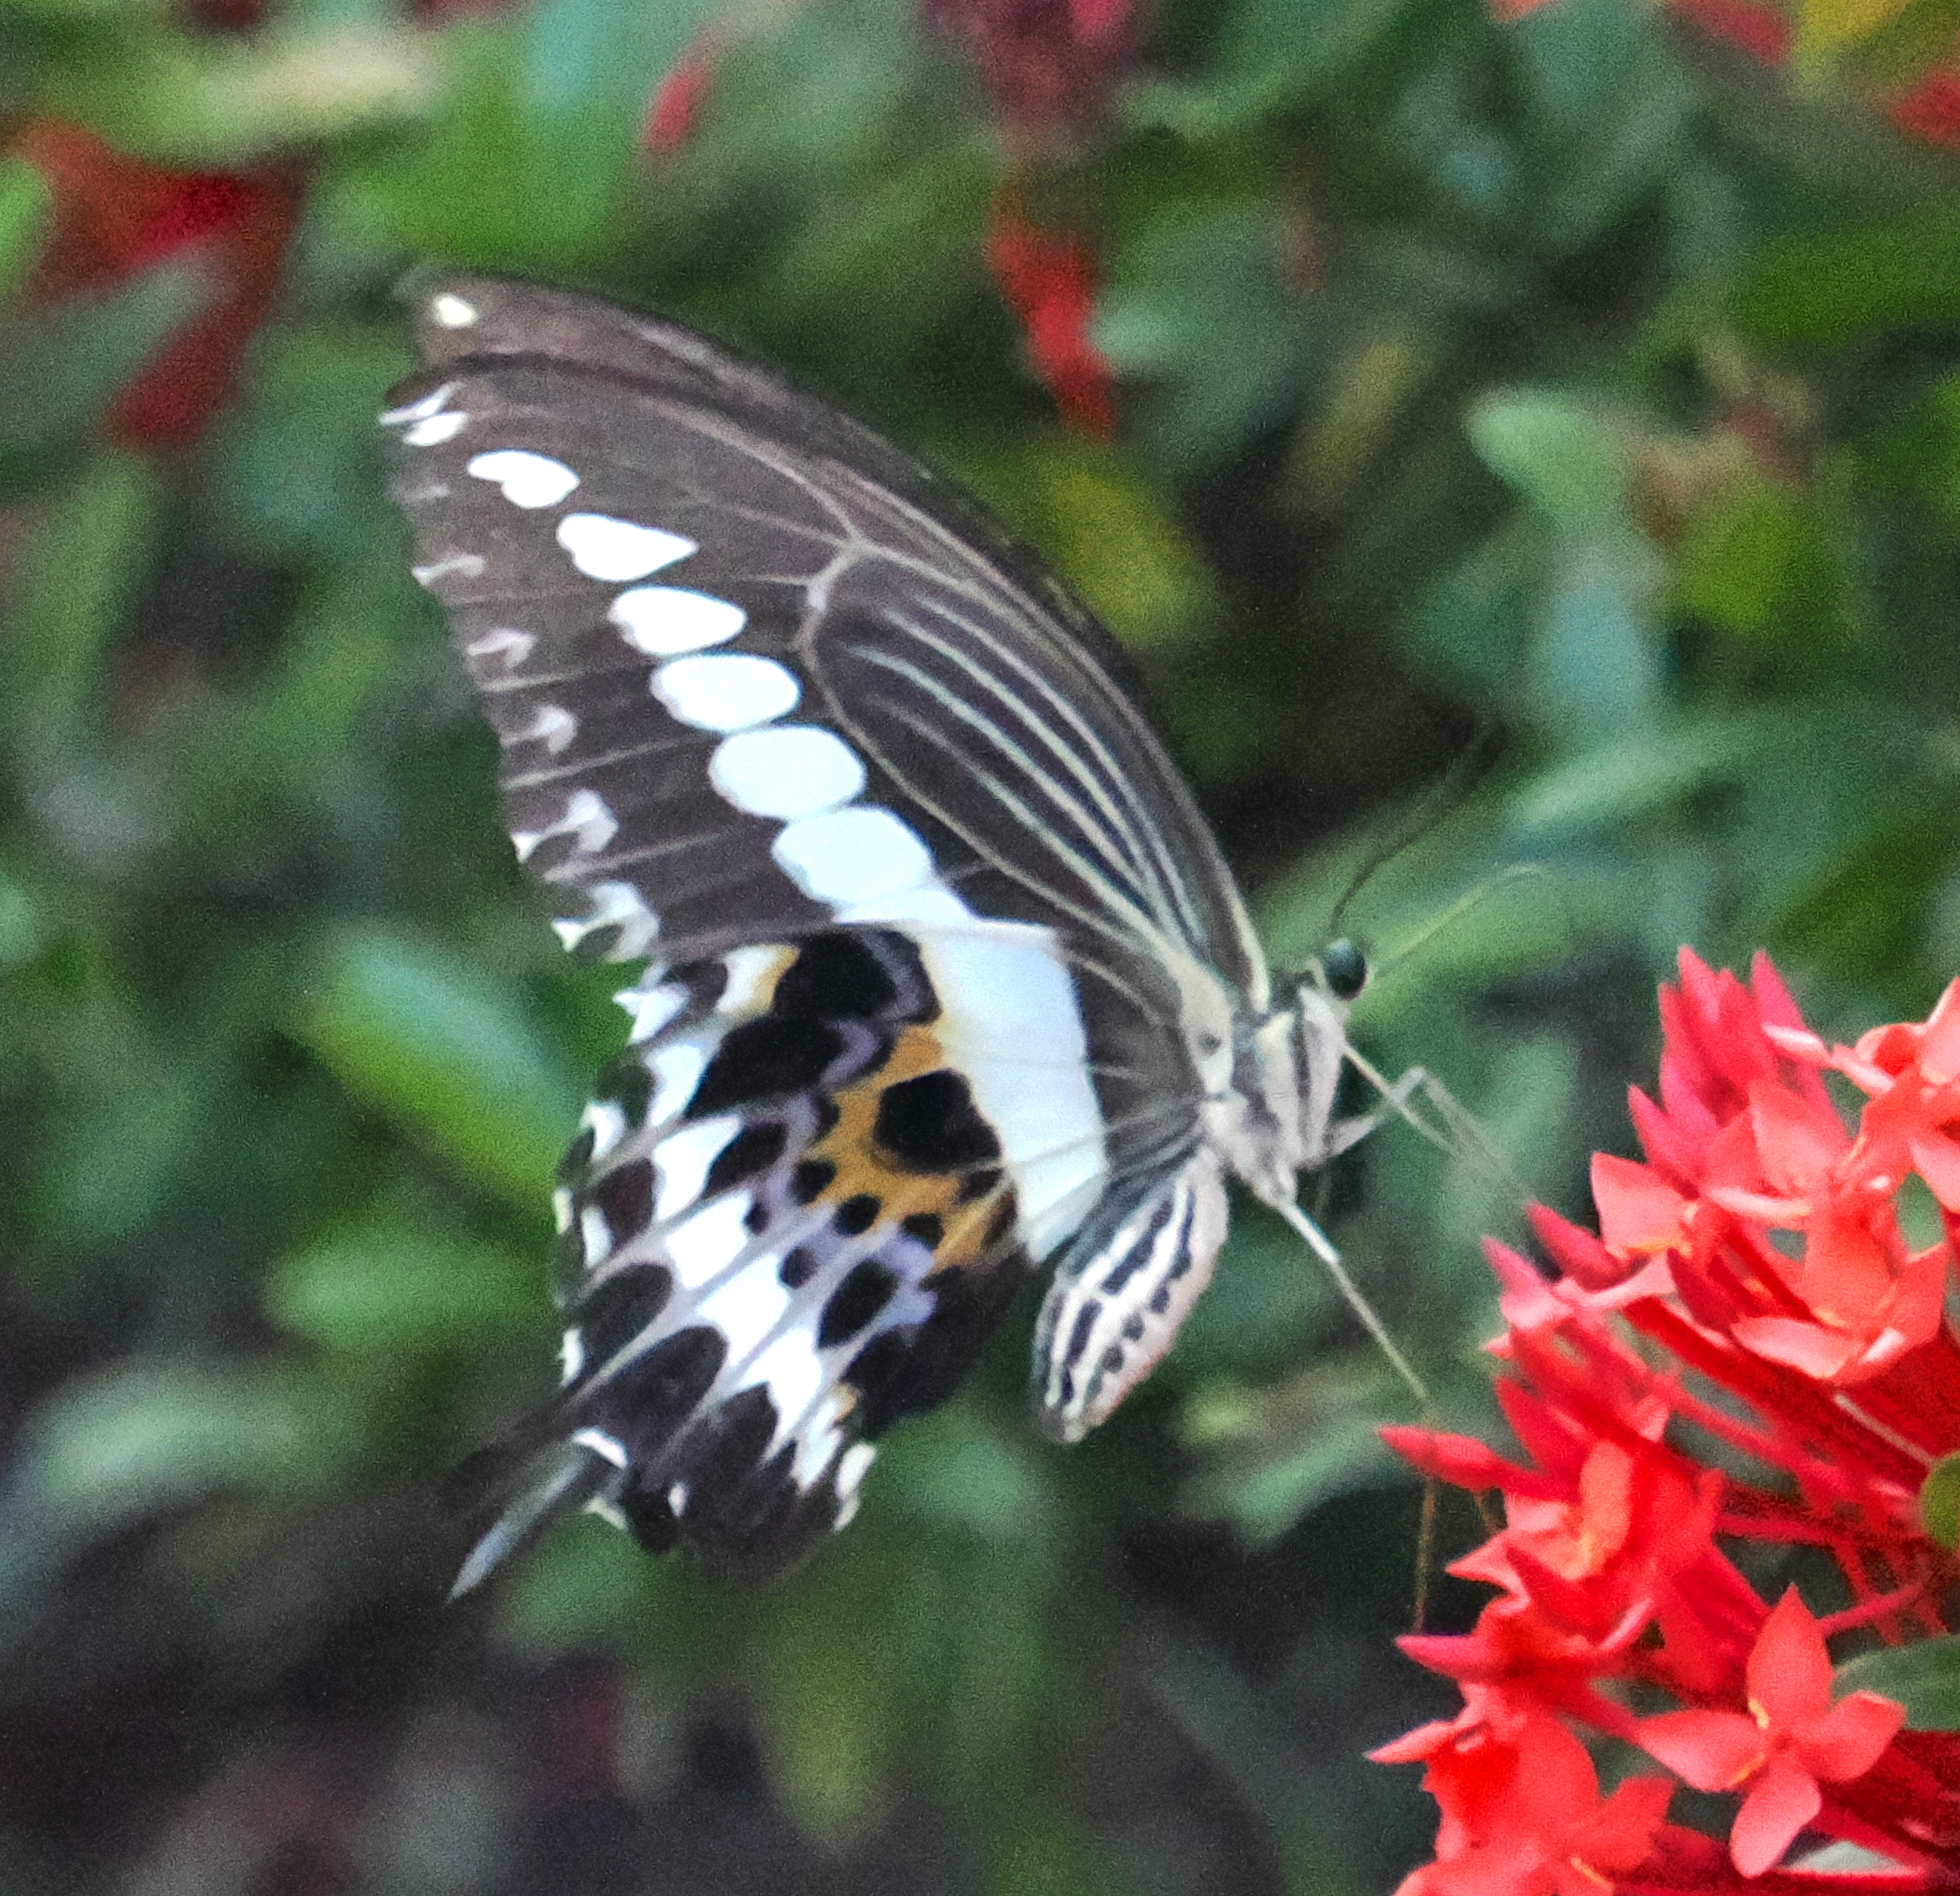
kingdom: Animalia
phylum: Arthropoda
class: Insecta
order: Lepidoptera
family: Papilionidae
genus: Papilio
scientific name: Papilio gigon
